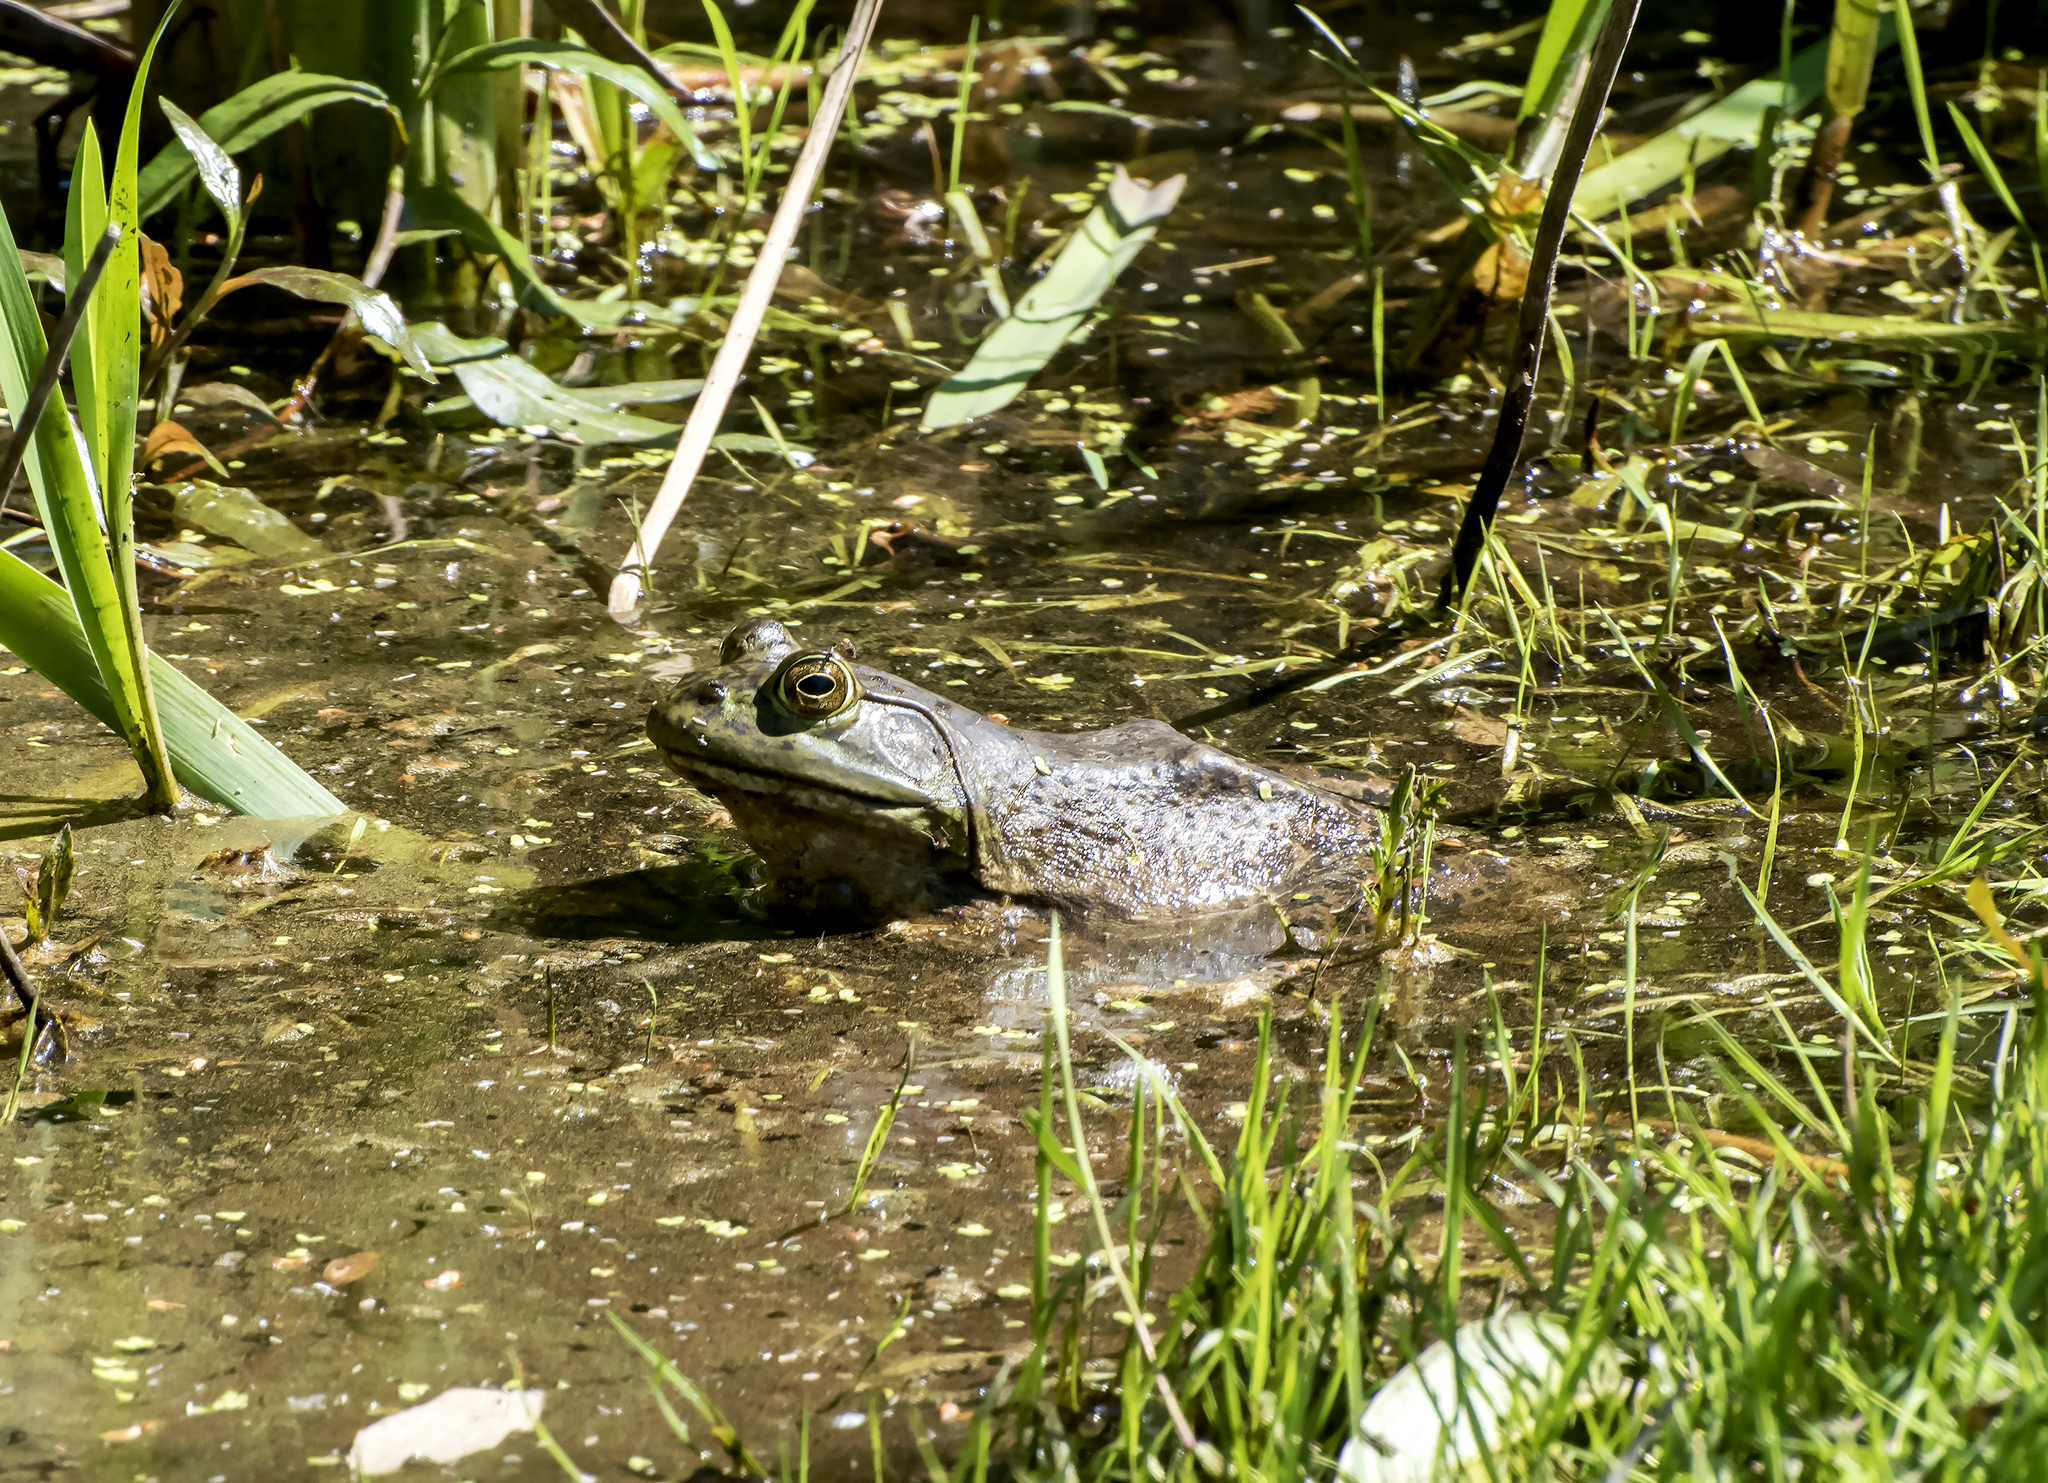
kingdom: Animalia
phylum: Chordata
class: Amphibia
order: Anura
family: Ranidae
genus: Lithobates
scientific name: Lithobates catesbeianus
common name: American bullfrog
